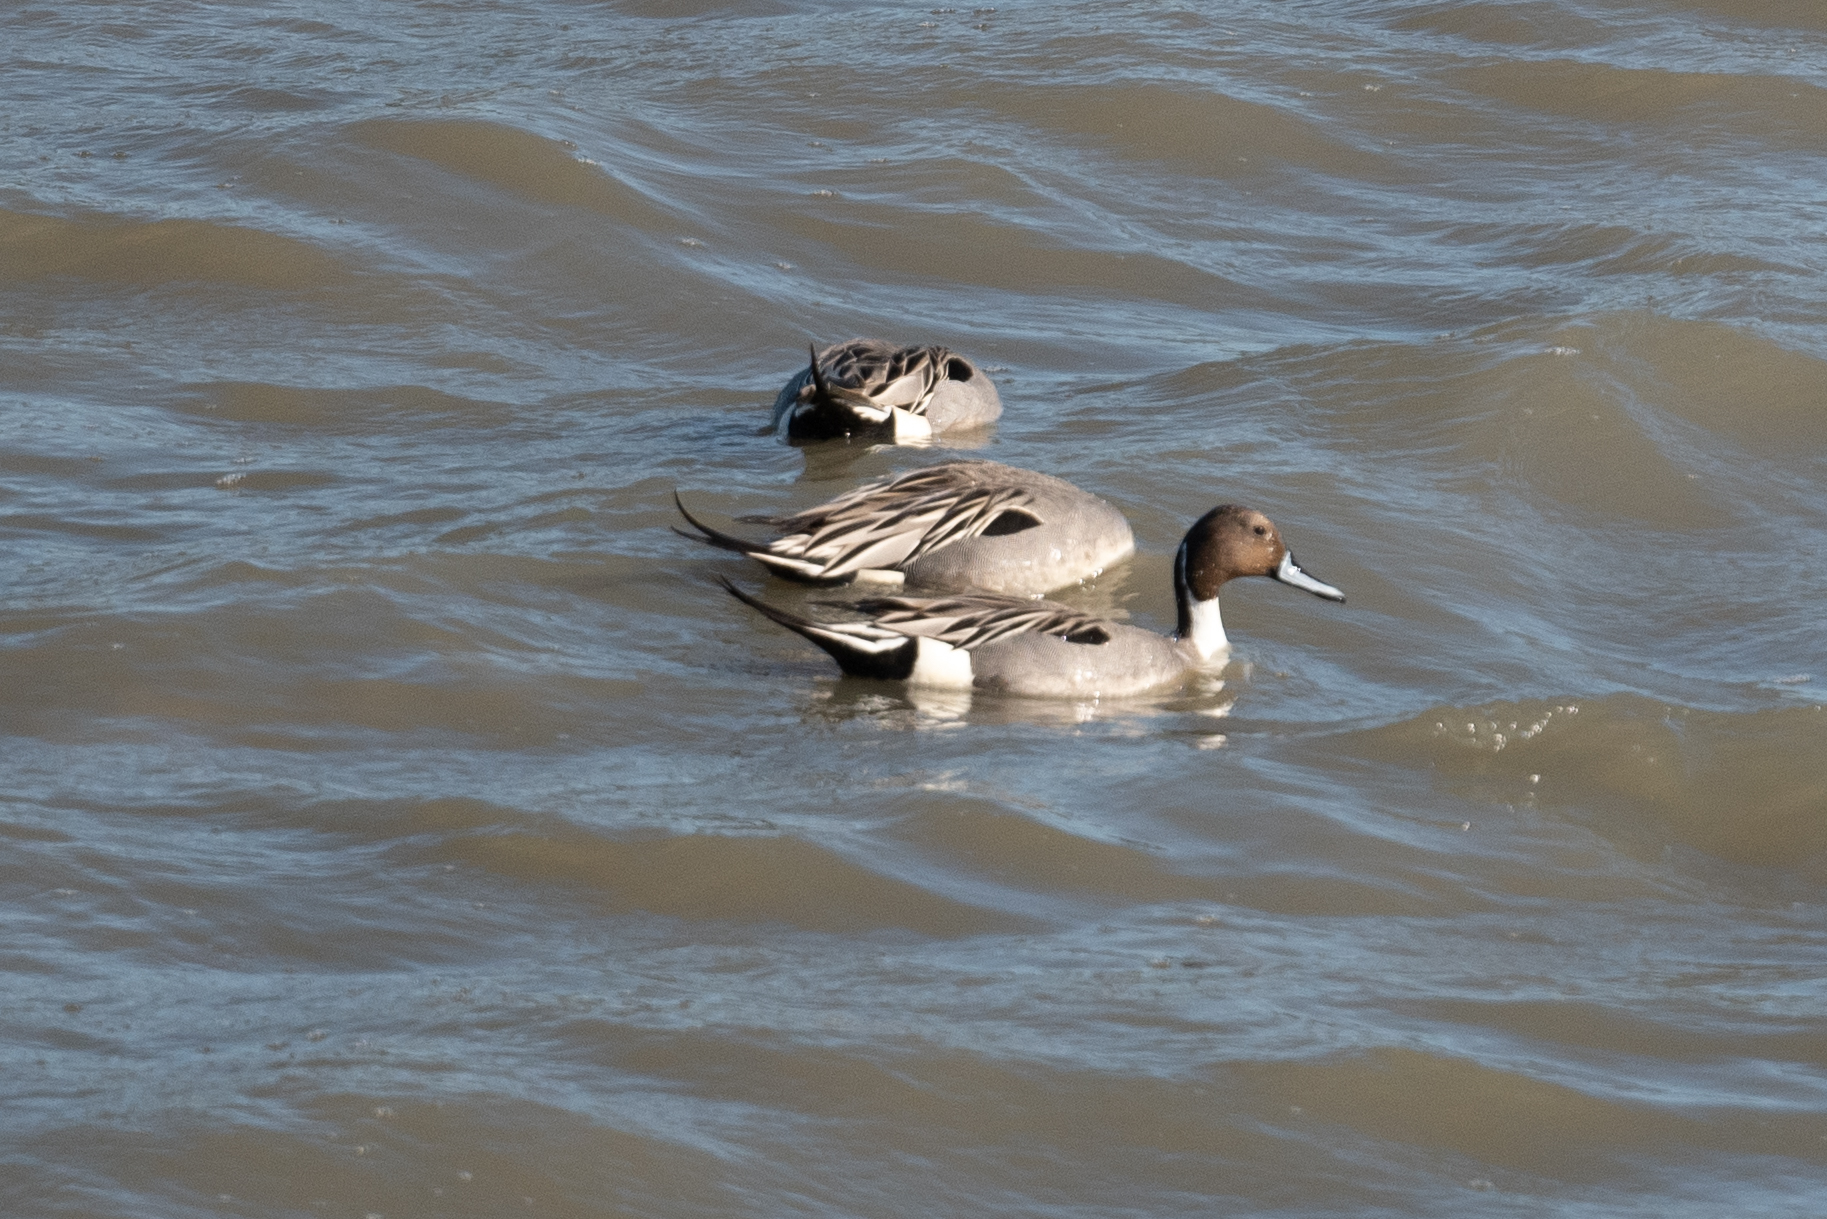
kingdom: Animalia
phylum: Chordata
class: Aves
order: Anseriformes
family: Anatidae
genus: Anas
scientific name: Anas acuta
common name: Northern pintail
